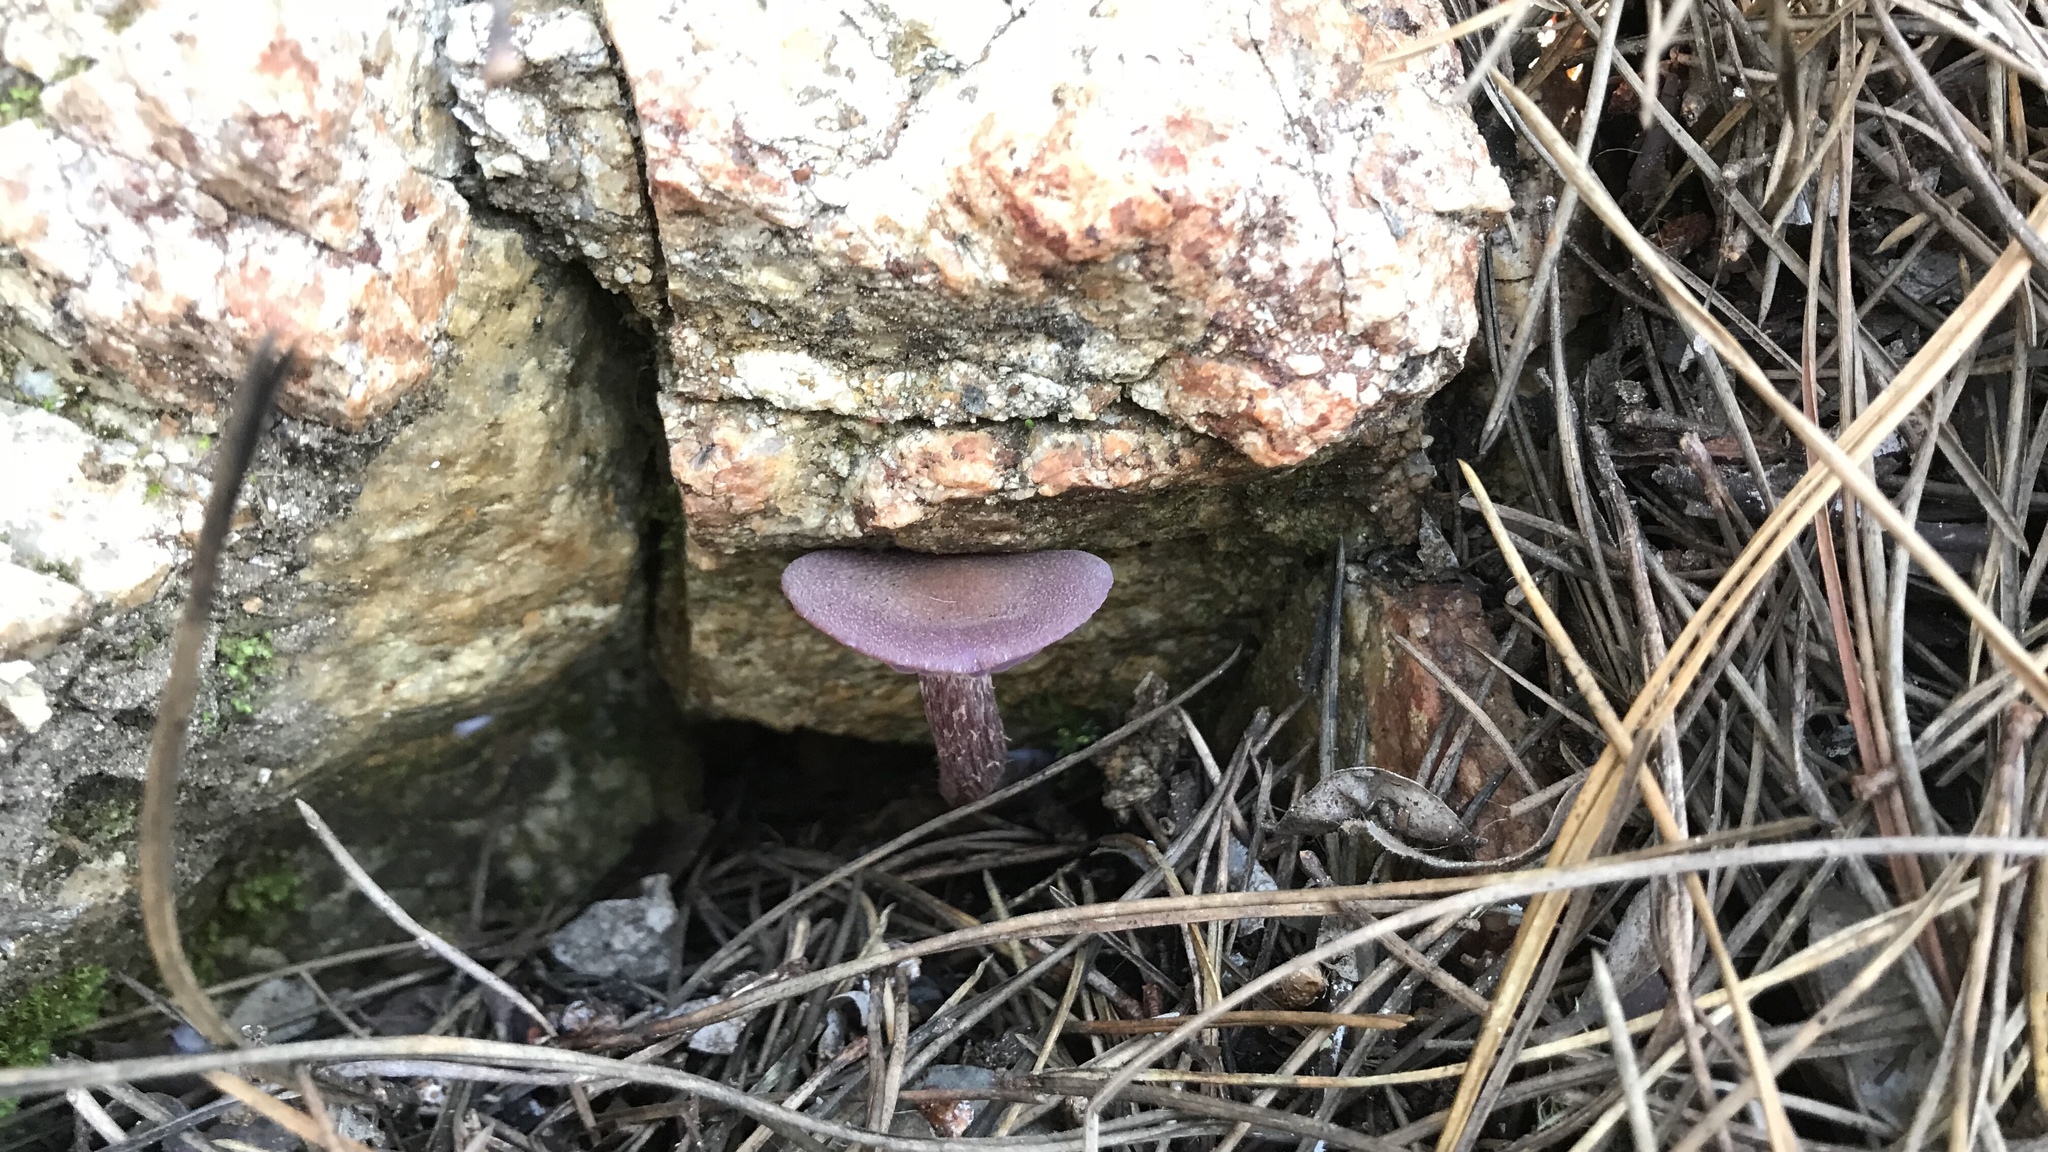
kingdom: Fungi
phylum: Basidiomycota
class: Agaricomycetes
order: Agaricales
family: Hydnangiaceae
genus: Laccaria
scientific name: Laccaria amethysteo-occidentalis
